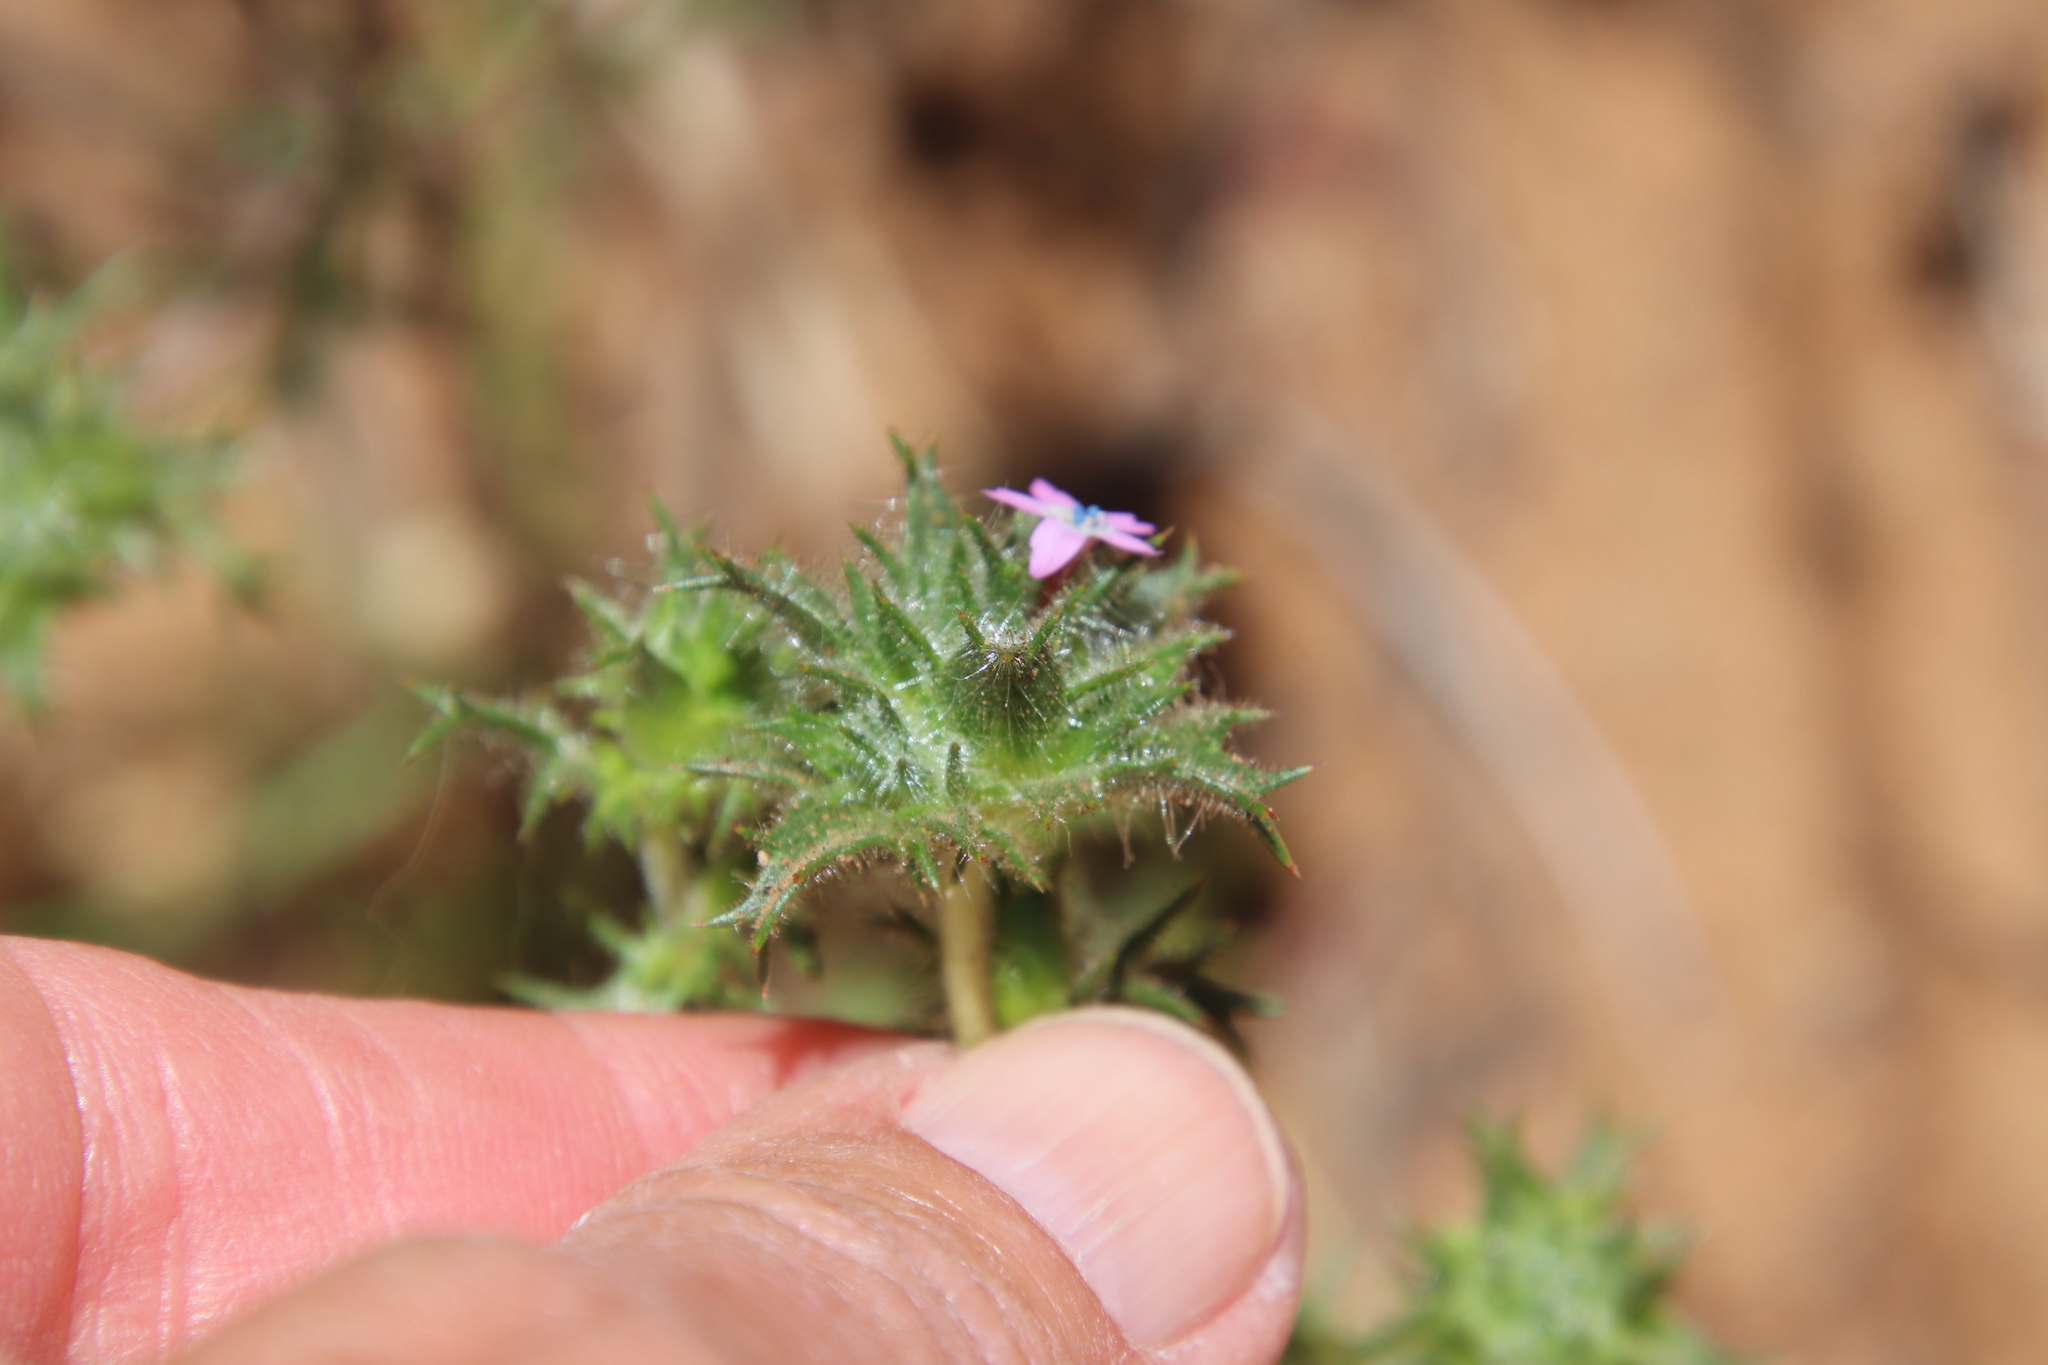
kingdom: Plantae
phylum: Tracheophyta
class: Magnoliopsida
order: Ericales
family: Polemoniaceae
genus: Navarretia
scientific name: Navarretia hamata
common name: Hooked navarretia
